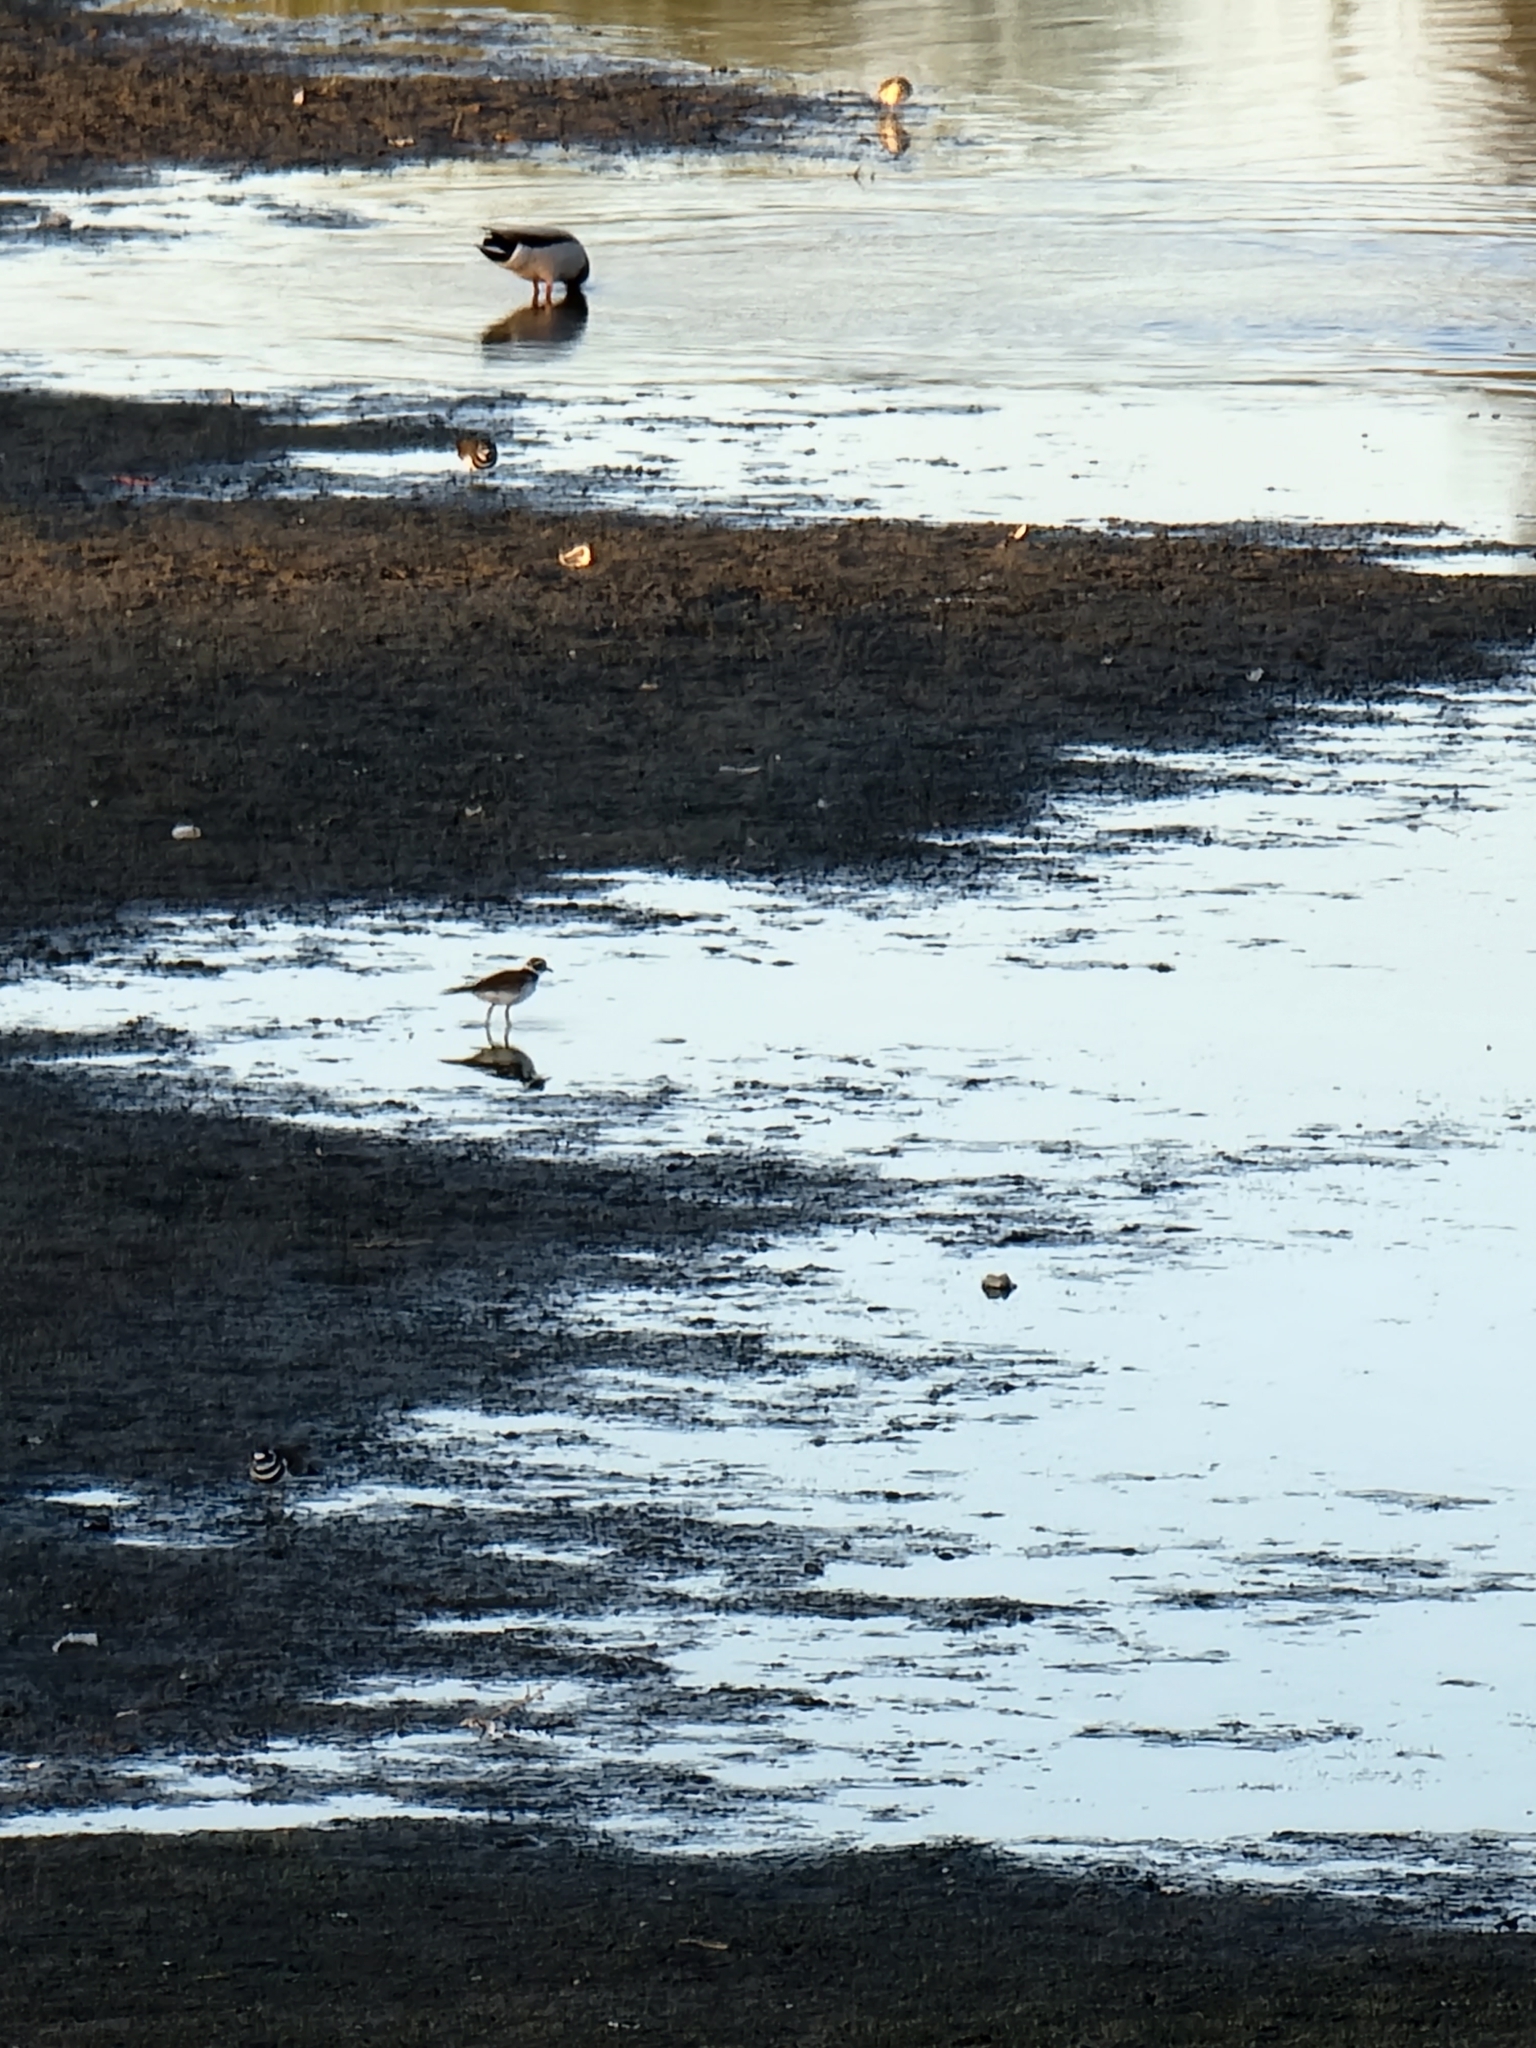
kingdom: Animalia
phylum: Chordata
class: Aves
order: Charadriiformes
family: Charadriidae
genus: Charadrius
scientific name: Charadrius vociferus
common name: Killdeer
